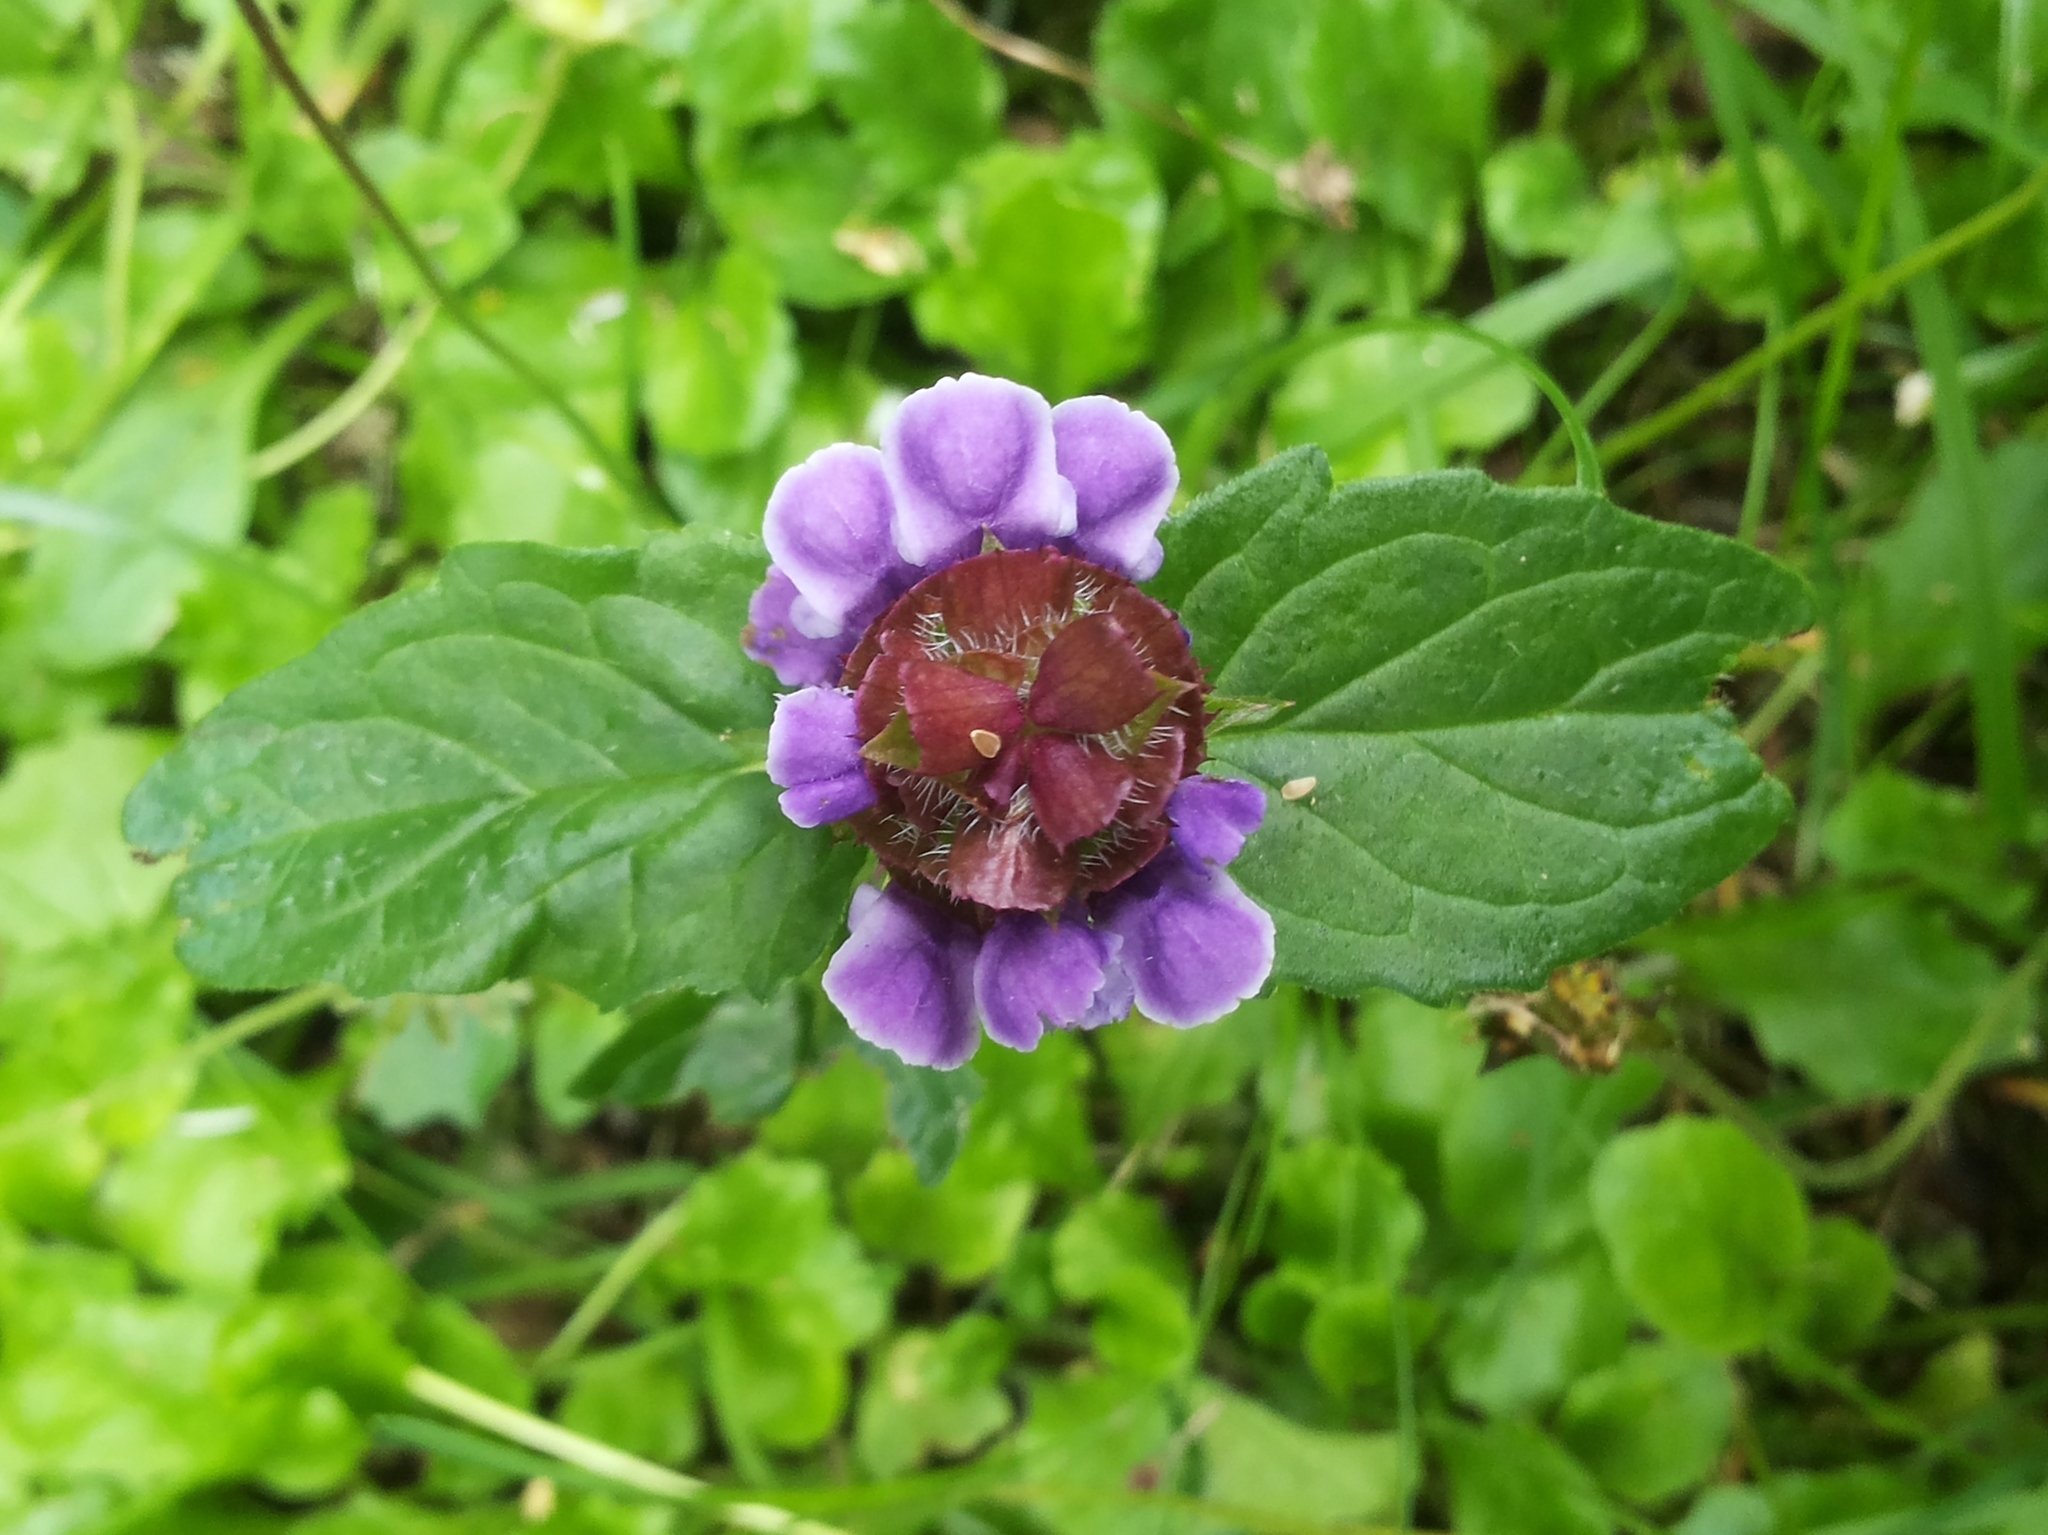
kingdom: Plantae
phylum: Tracheophyta
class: Magnoliopsida
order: Lamiales
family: Lamiaceae
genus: Prunella
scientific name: Prunella vulgaris
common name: Heal-all
